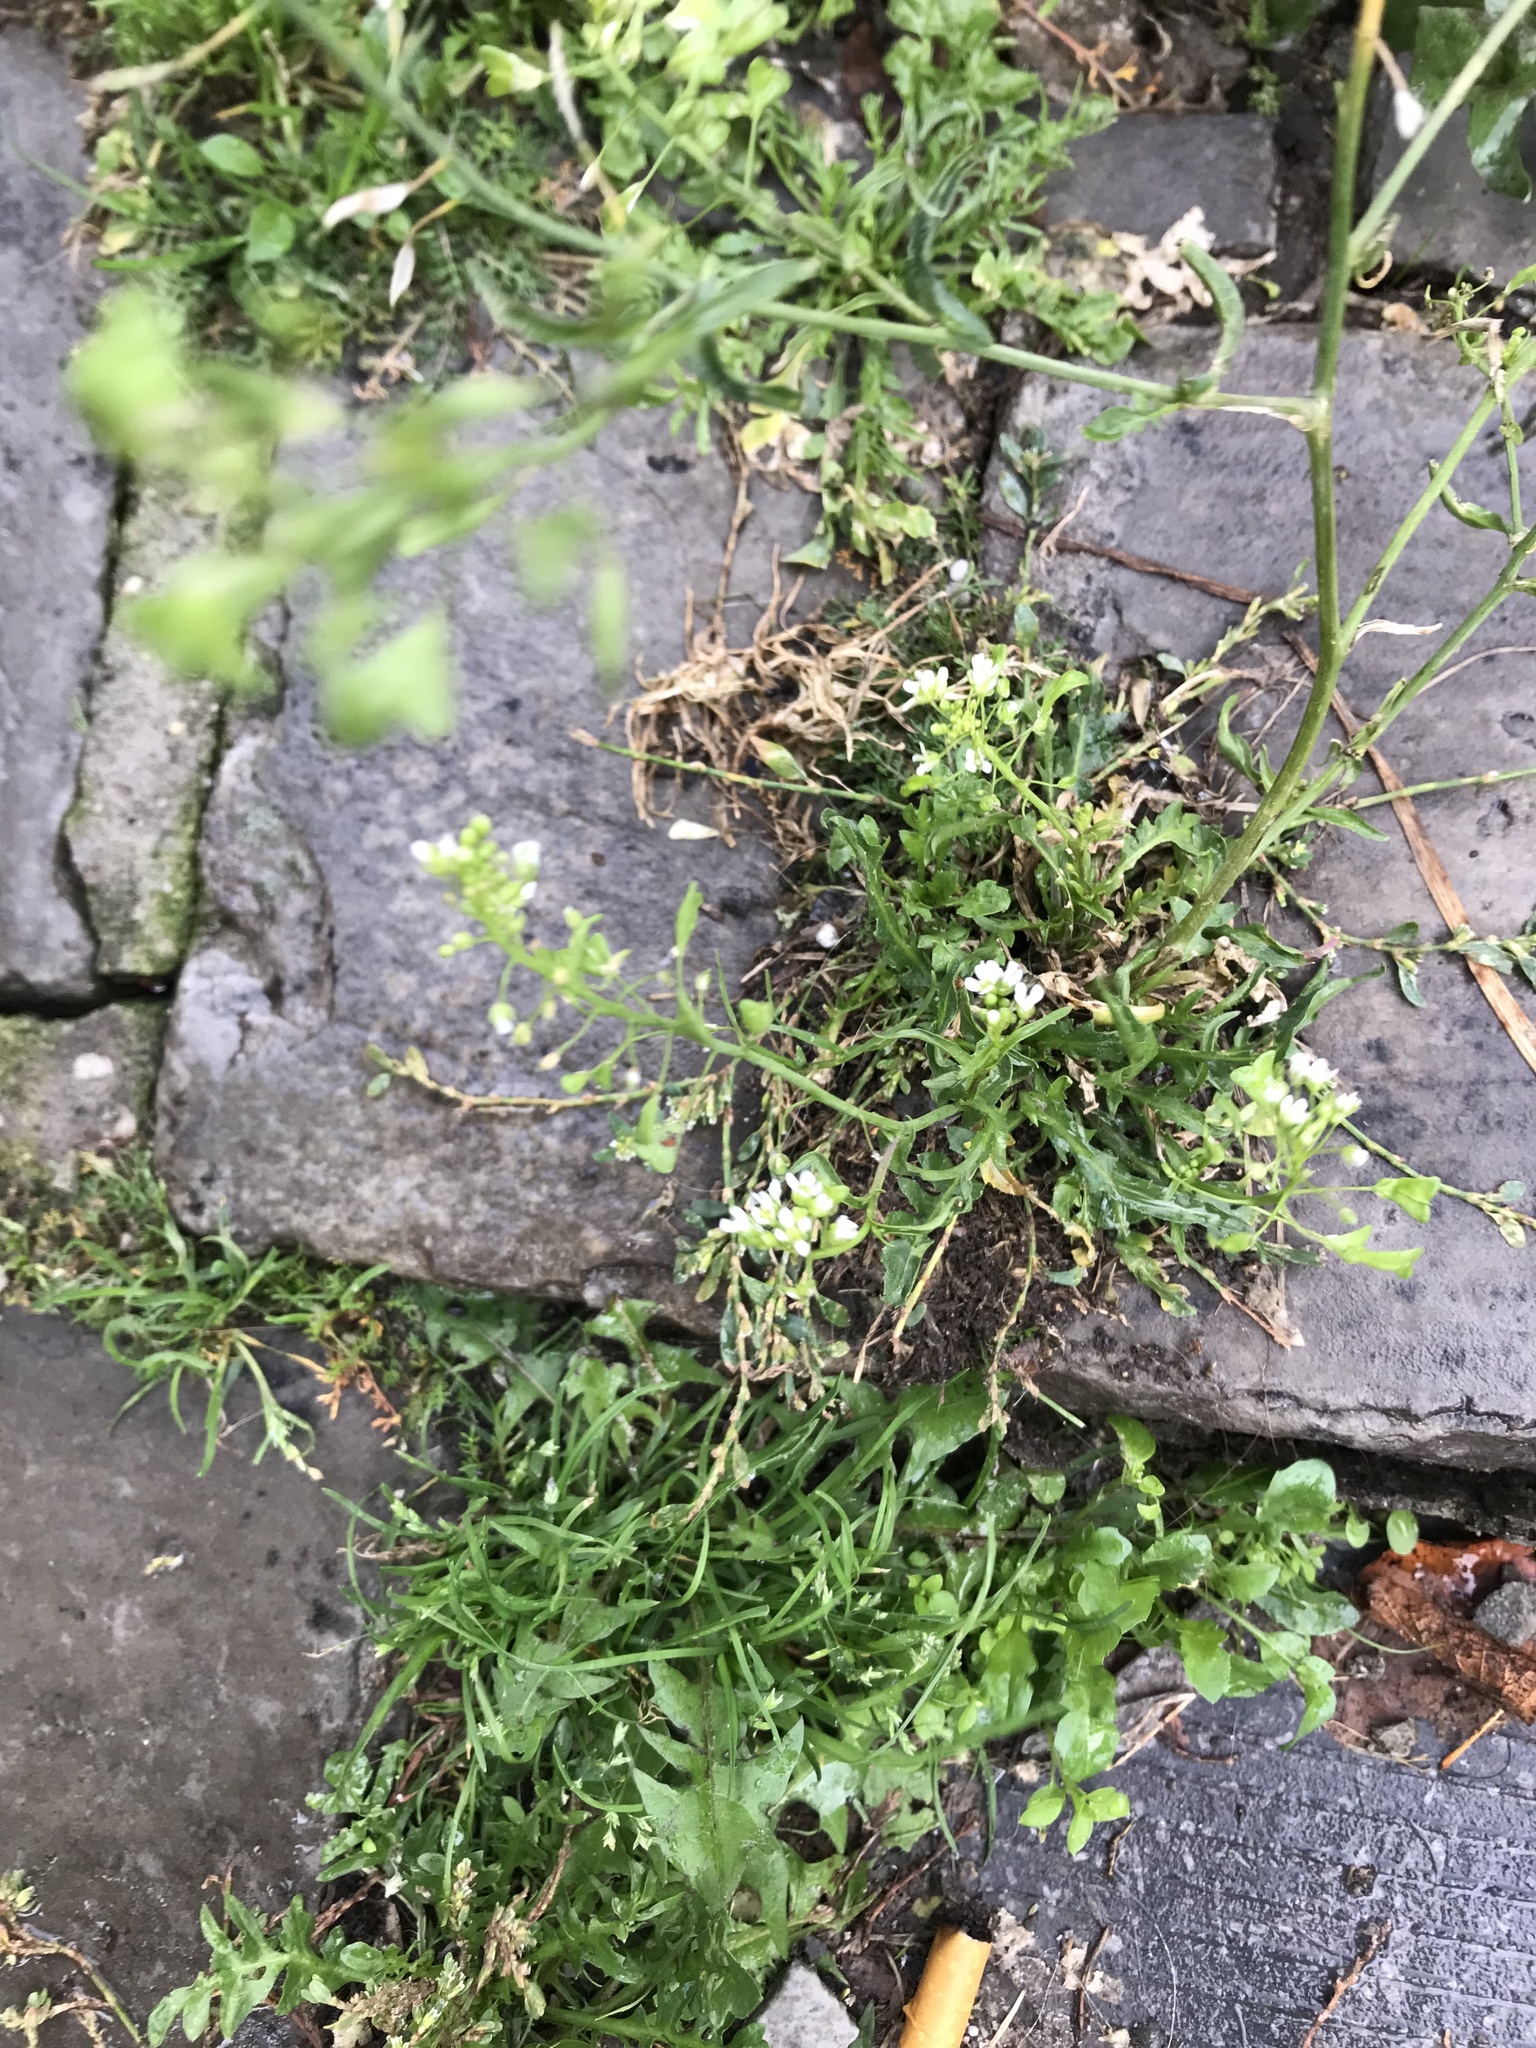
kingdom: Plantae
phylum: Tracheophyta
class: Magnoliopsida
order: Brassicales
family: Brassicaceae
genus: Capsella
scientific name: Capsella bursa-pastoris
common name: Shepherd's purse
